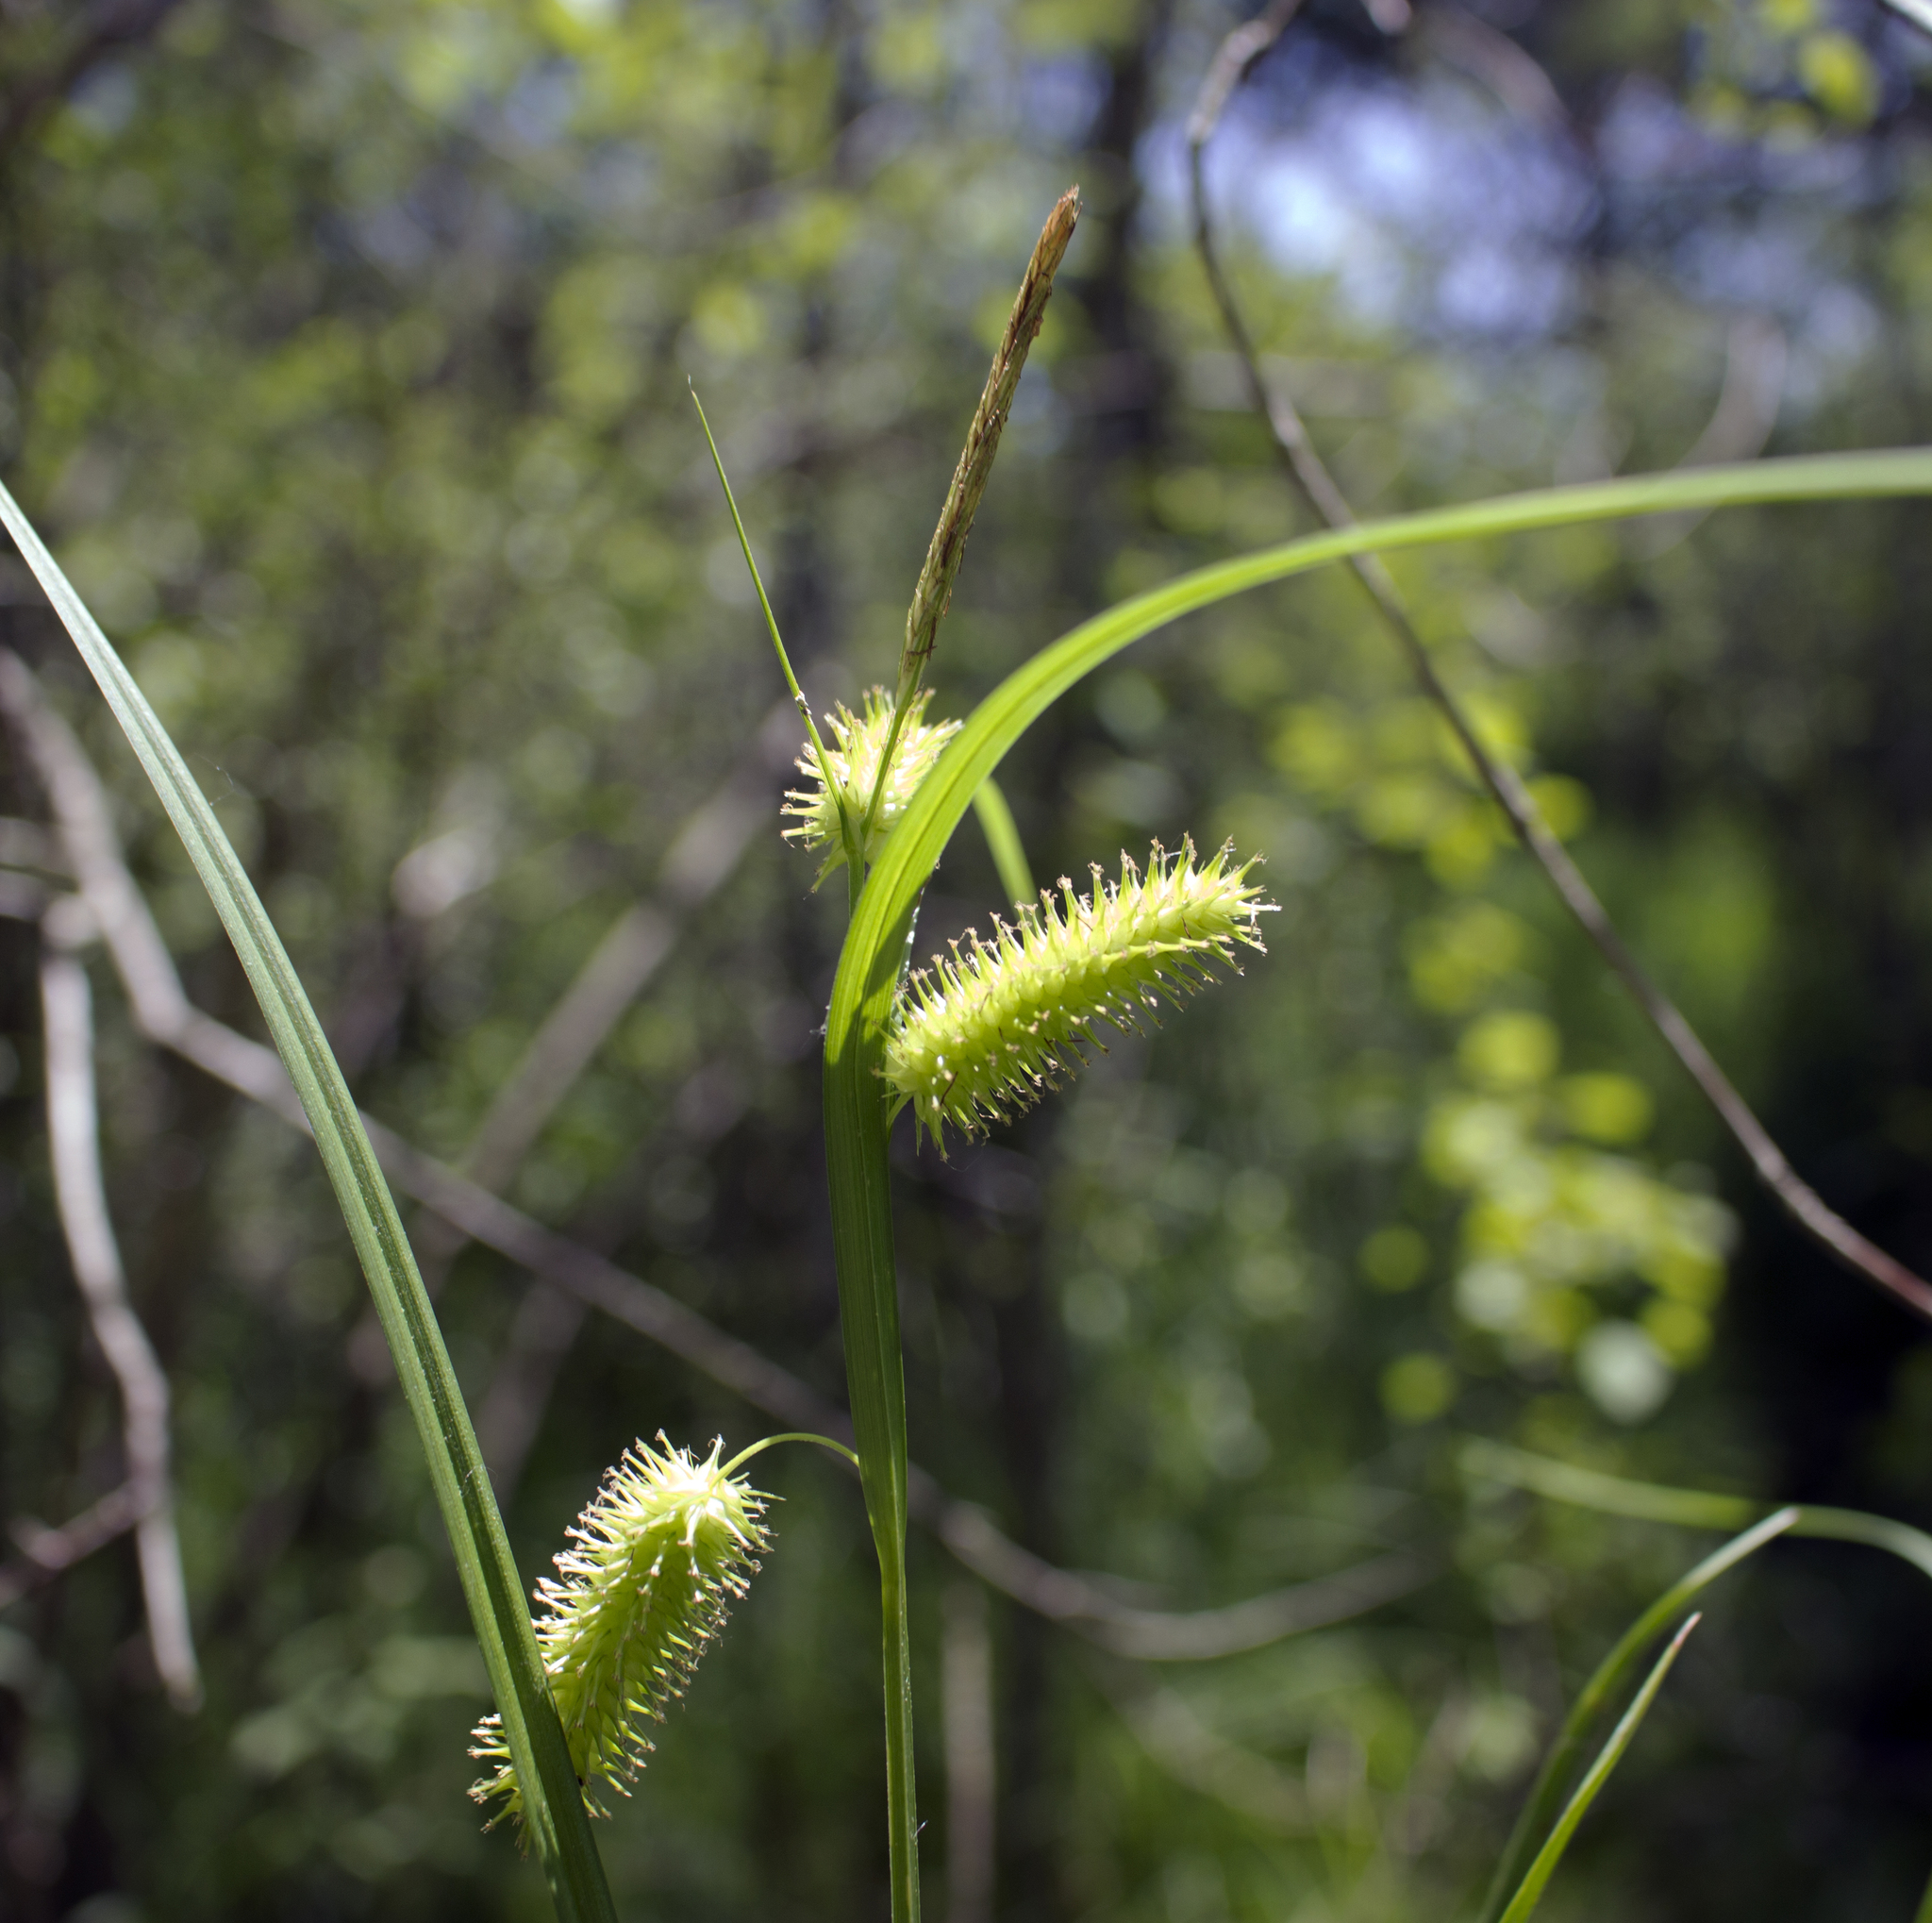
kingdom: Plantae
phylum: Tracheophyta
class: Liliopsida
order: Poales
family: Cyperaceae
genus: Carex
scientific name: Carex hystericina
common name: Bottlebrush sedge
